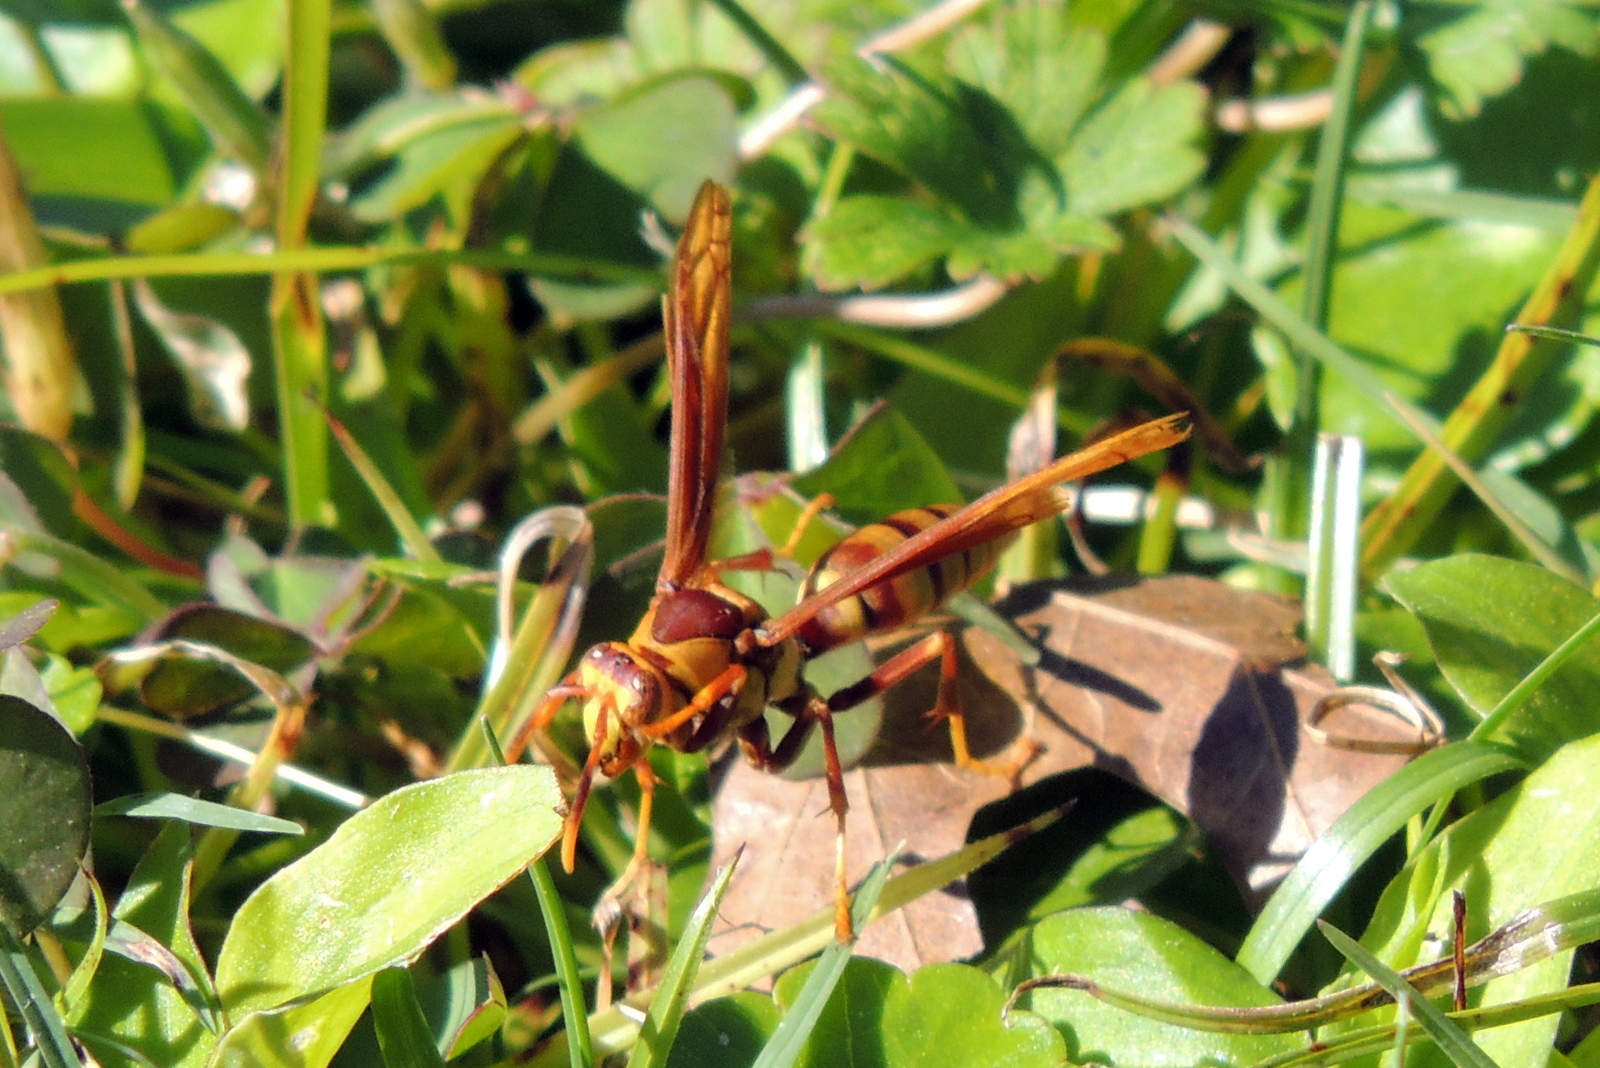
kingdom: Animalia
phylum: Arthropoda
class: Insecta
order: Hymenoptera
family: Eumenidae
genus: Polistes
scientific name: Polistes major
